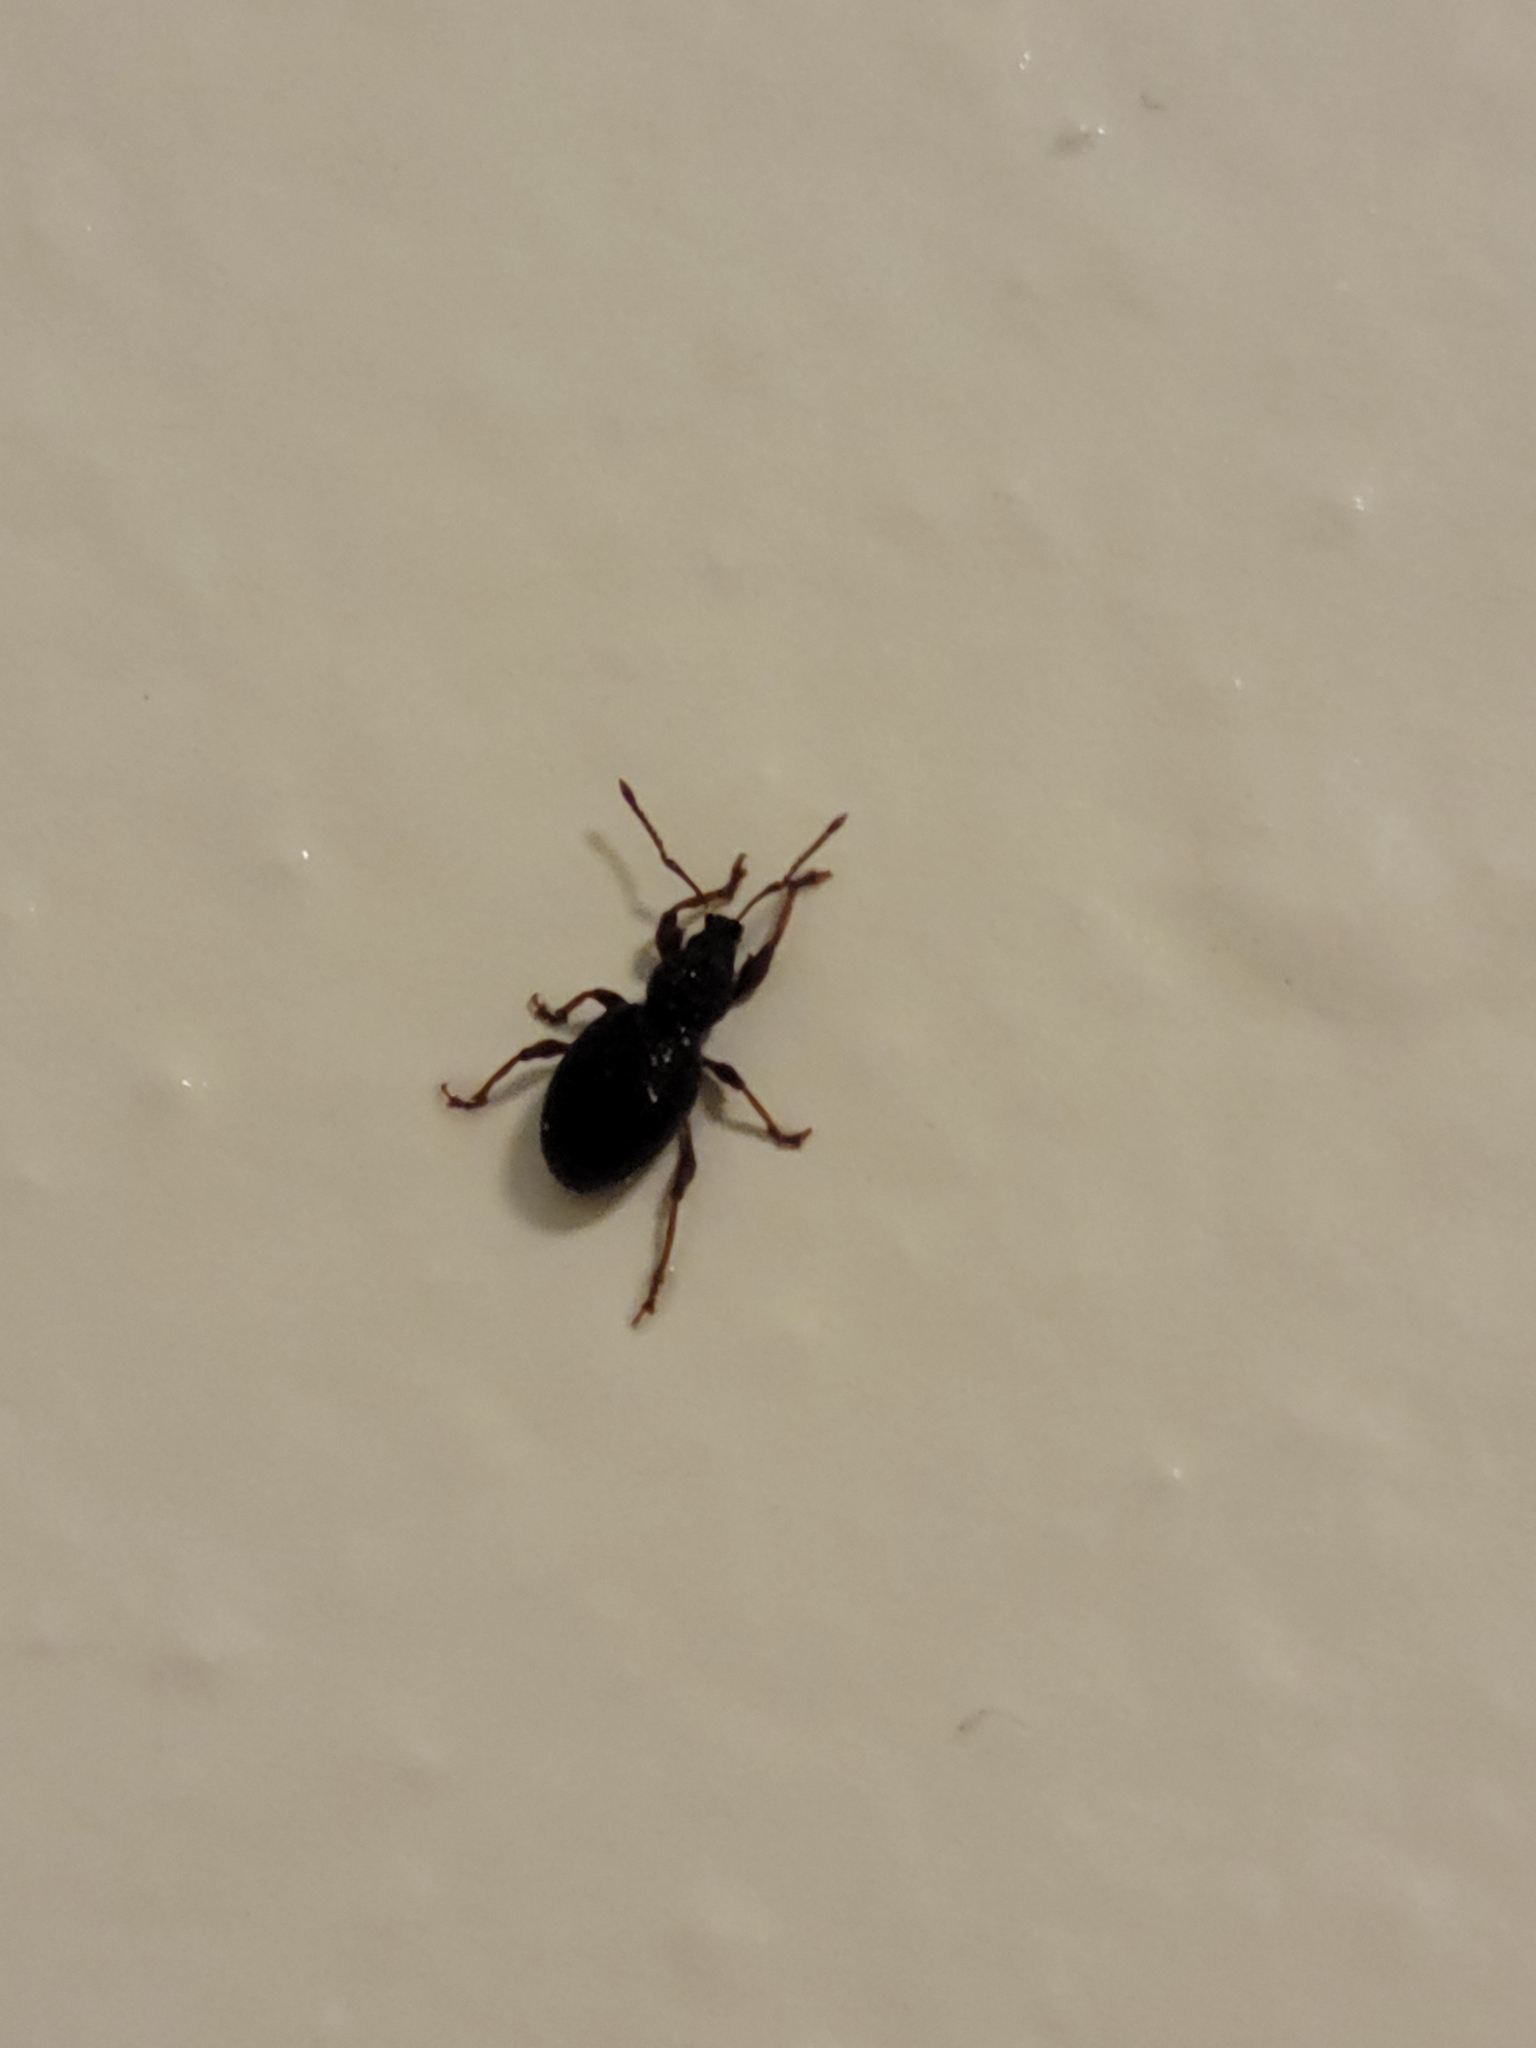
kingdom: Animalia
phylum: Arthropoda
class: Insecta
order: Coleoptera
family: Curculionidae
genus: Otiorhynchus
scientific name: Otiorhynchus ovatus
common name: Strawberry root weevil
